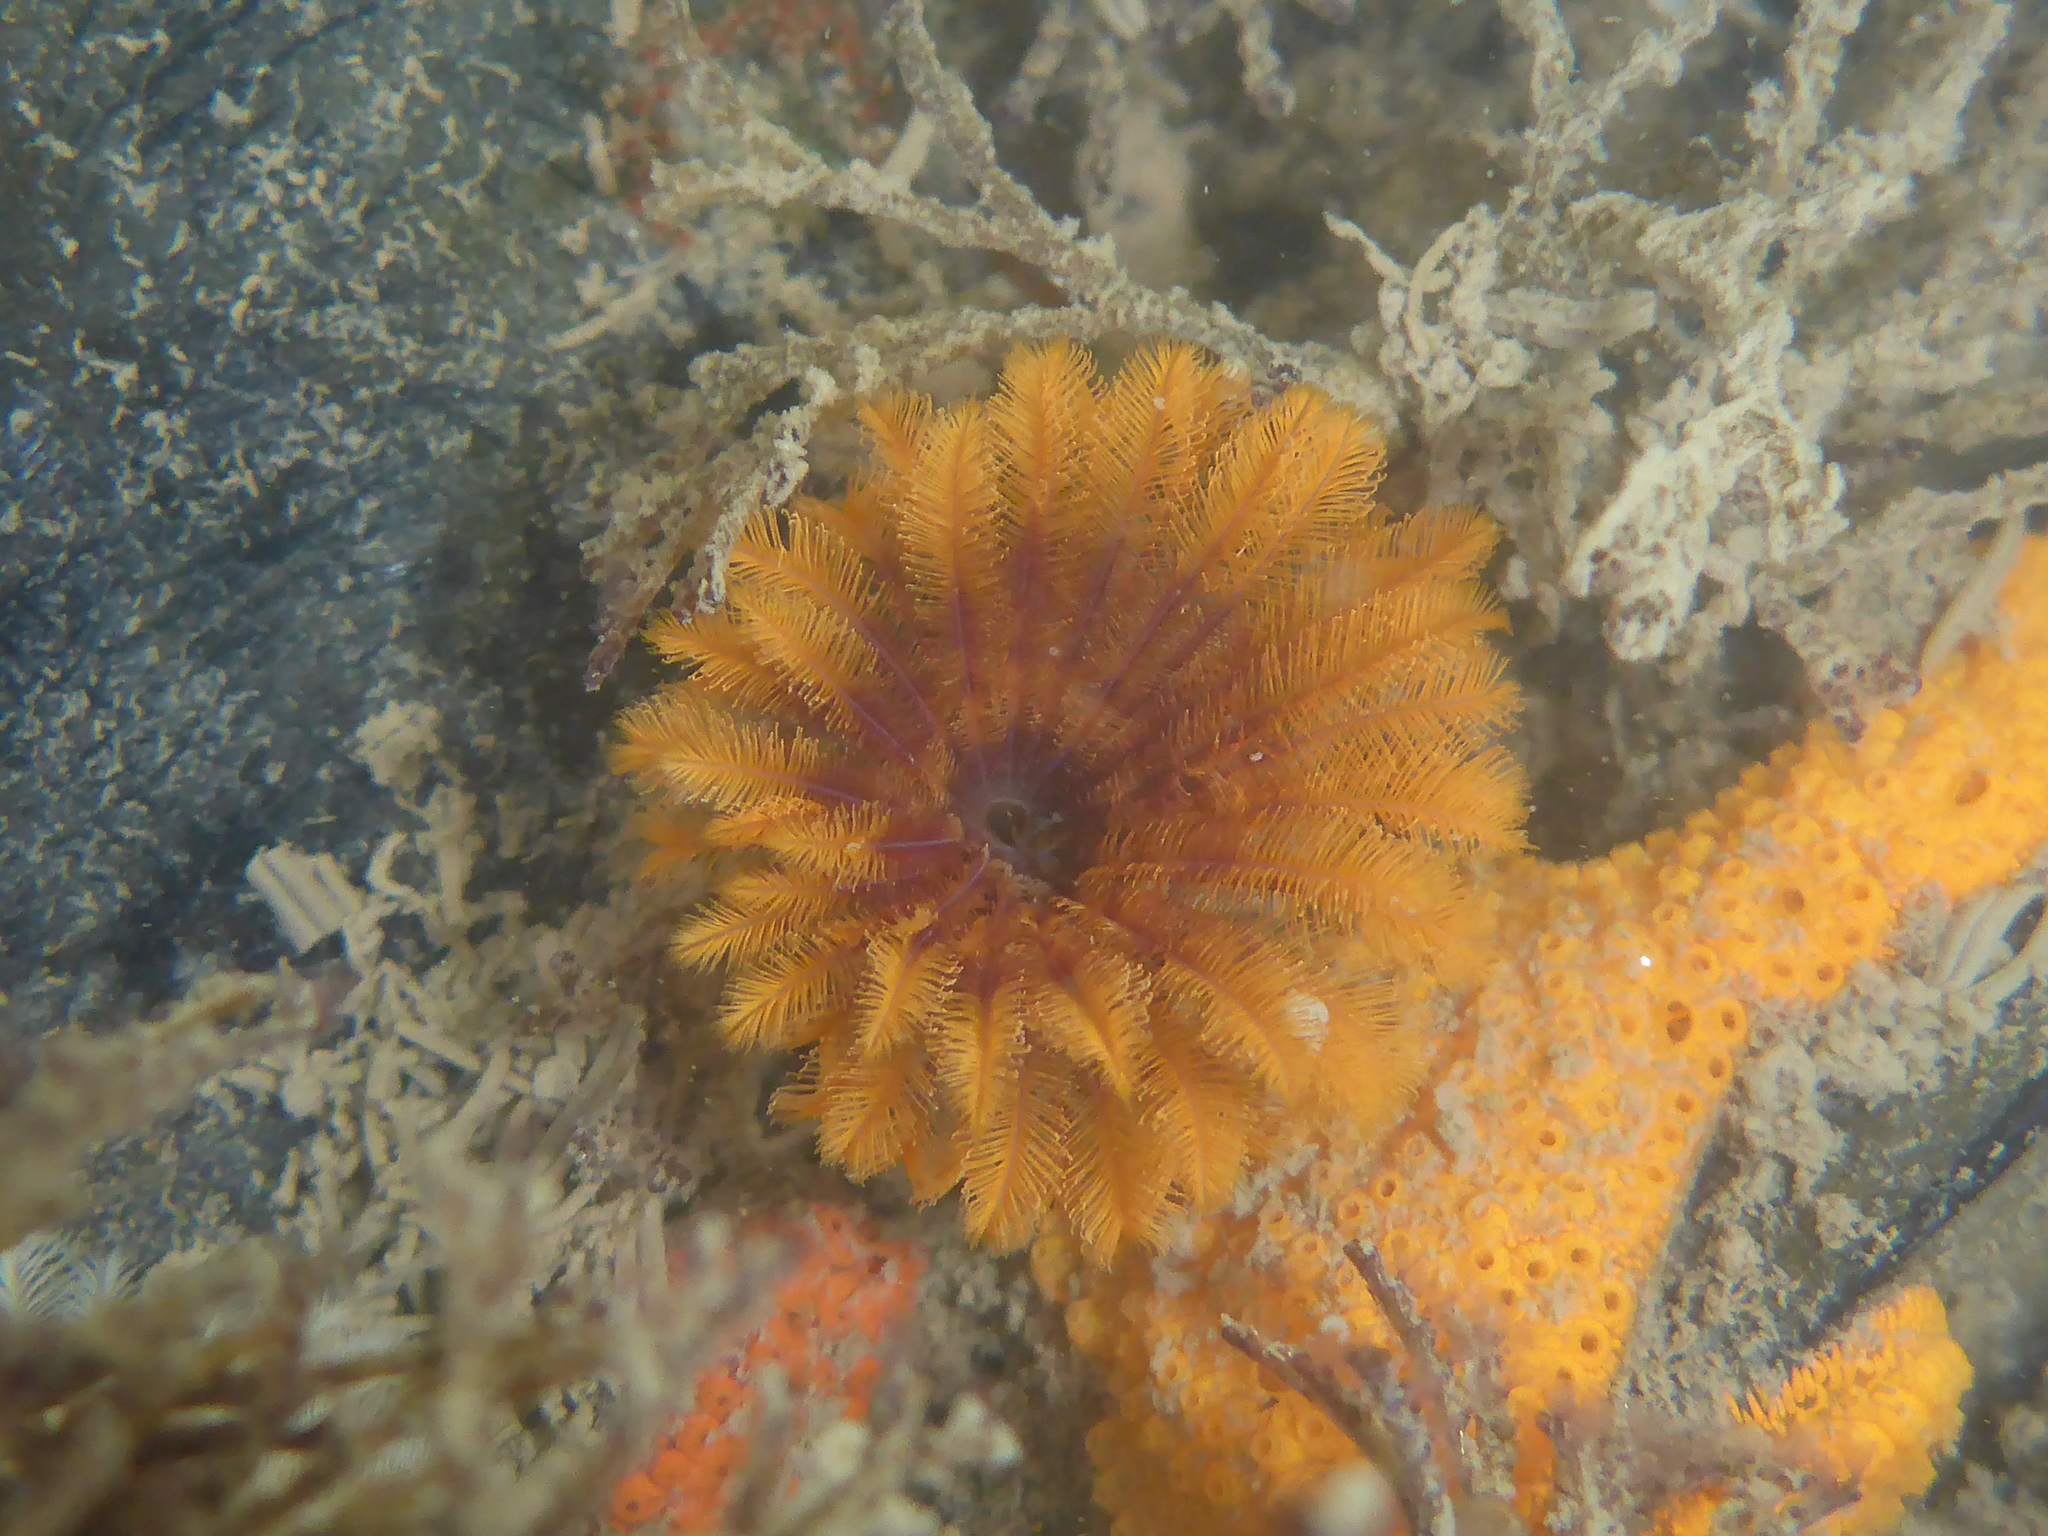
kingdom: Animalia
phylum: Annelida
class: Polychaeta
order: Sabellida
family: Sabellidae
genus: Eudistylia
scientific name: Eudistylia polymorpha
